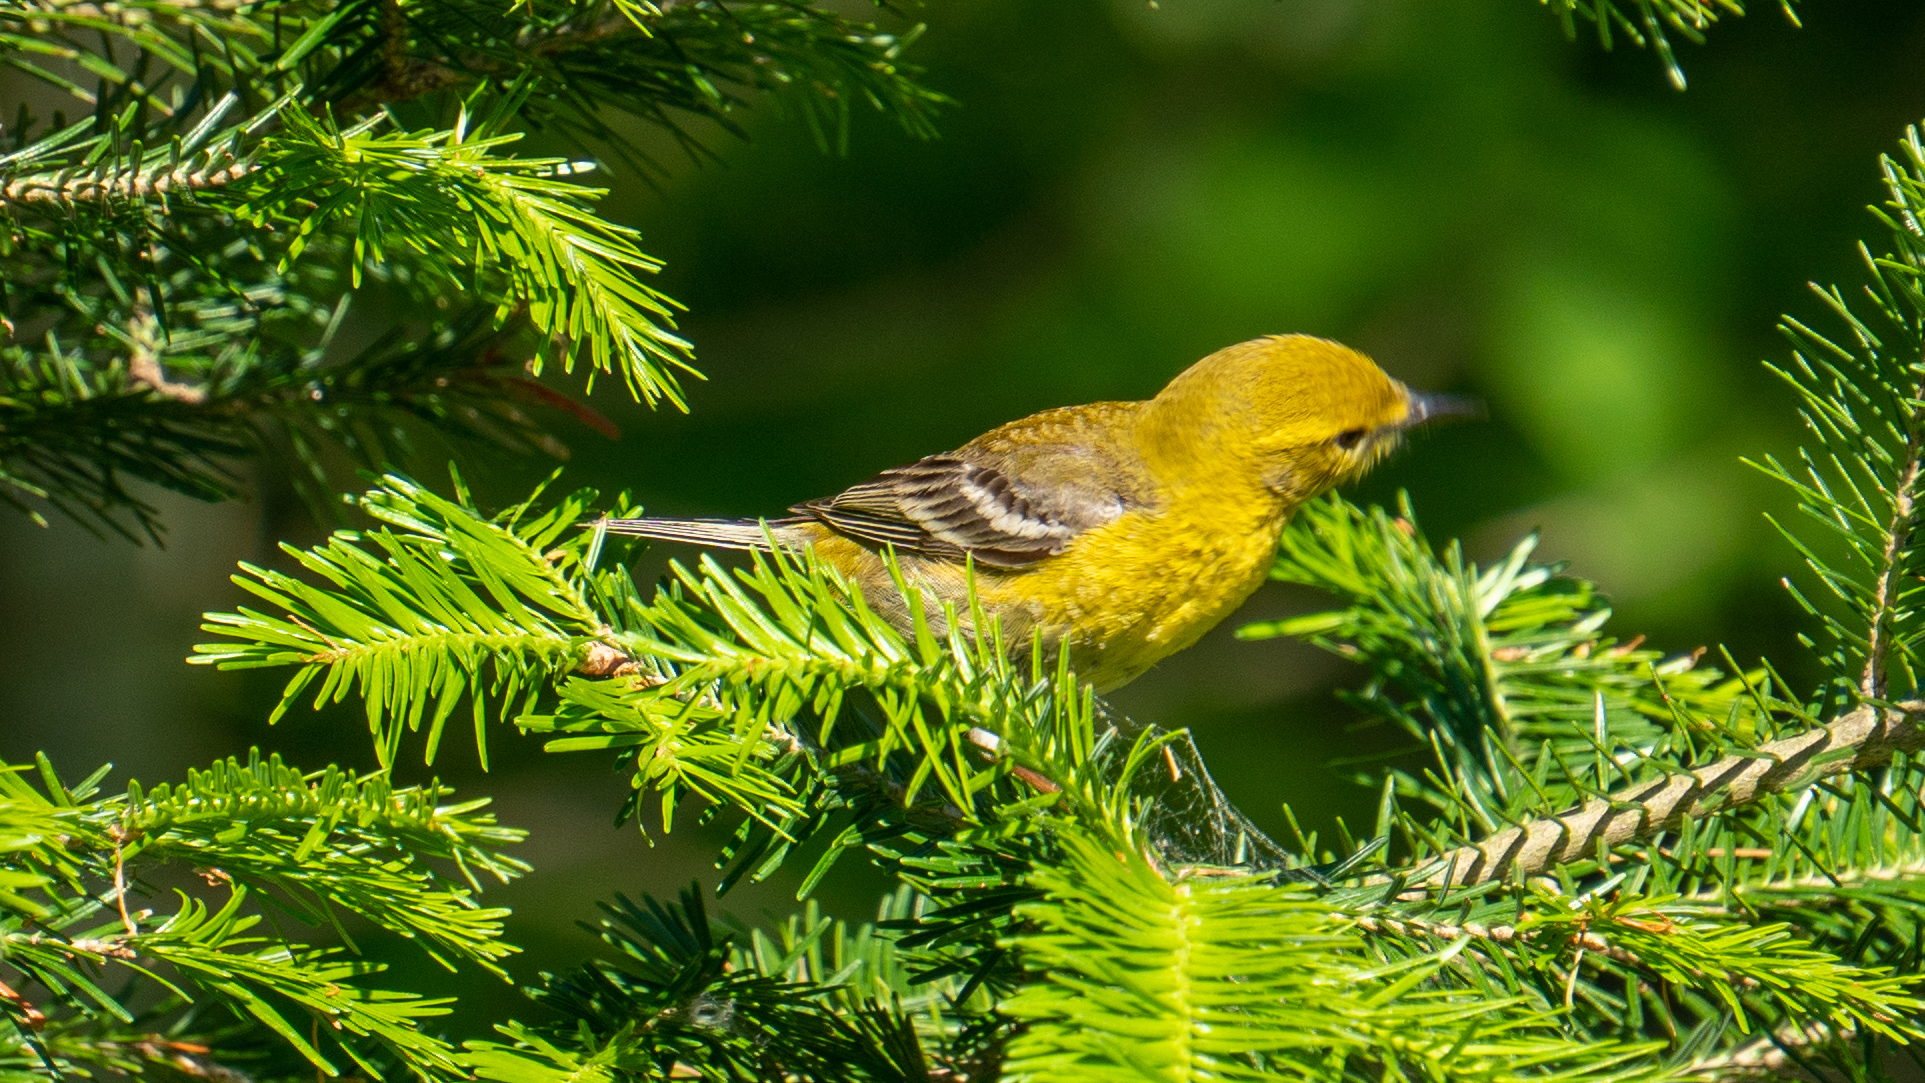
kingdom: Animalia
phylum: Chordata
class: Aves
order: Passeriformes
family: Parulidae
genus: Setophaga
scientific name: Setophaga pinus
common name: Pine warbler
